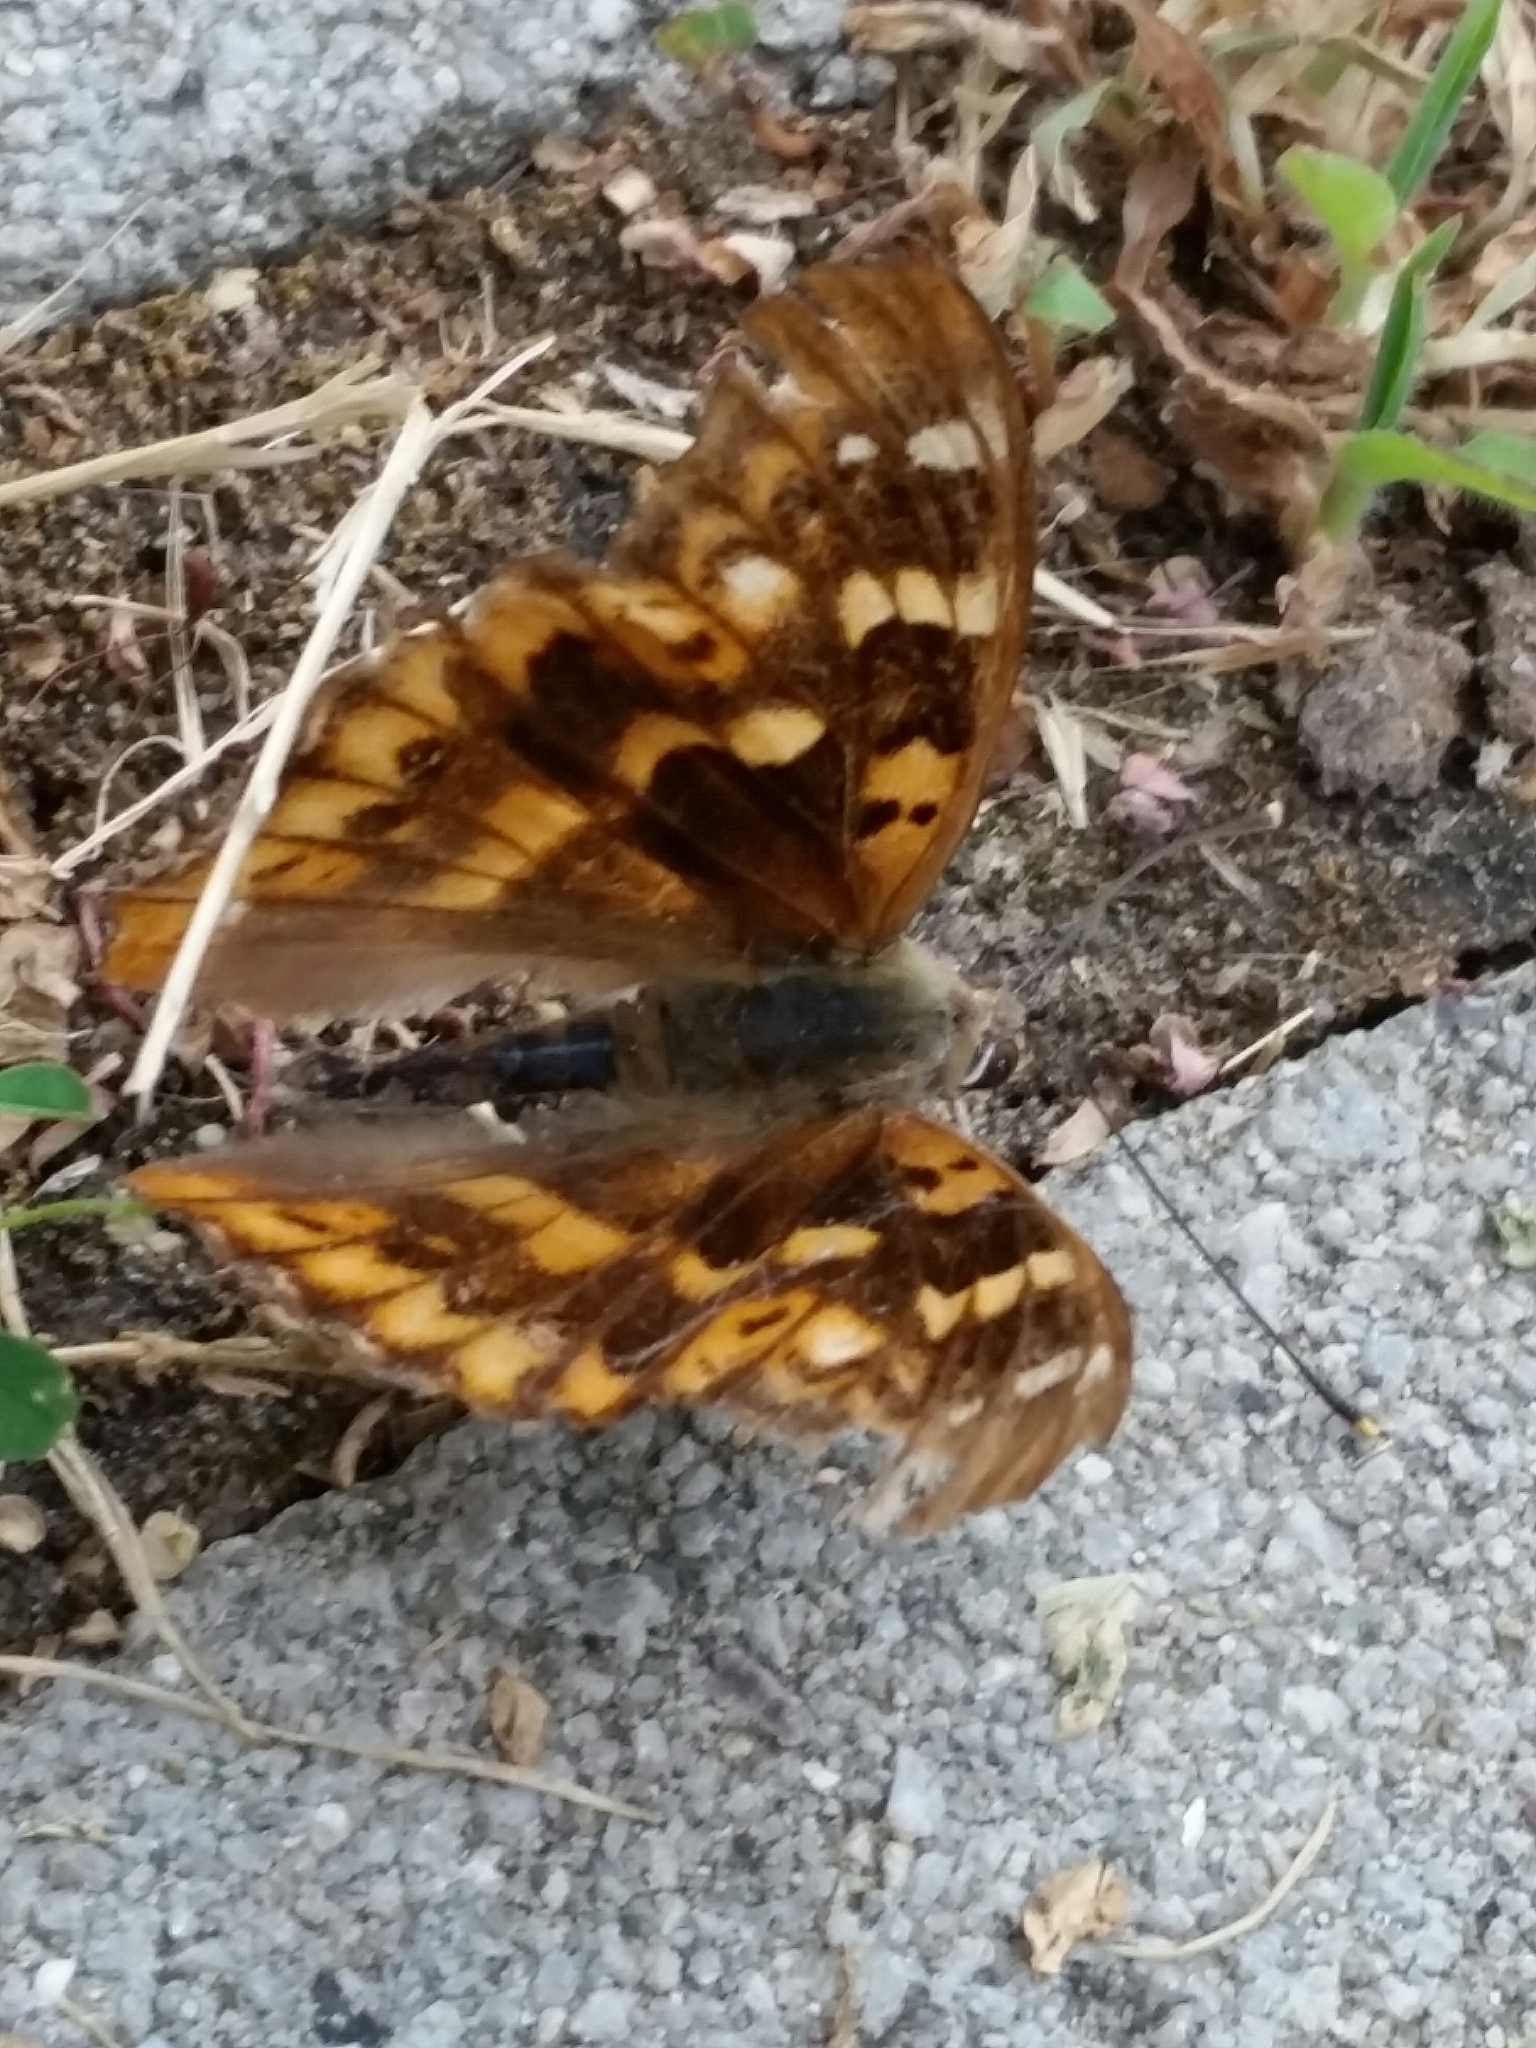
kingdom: Animalia
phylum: Arthropoda
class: Insecta
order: Lepidoptera
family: Nymphalidae
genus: Apatura
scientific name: Apatura ilia
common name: Lesser purple emperor
